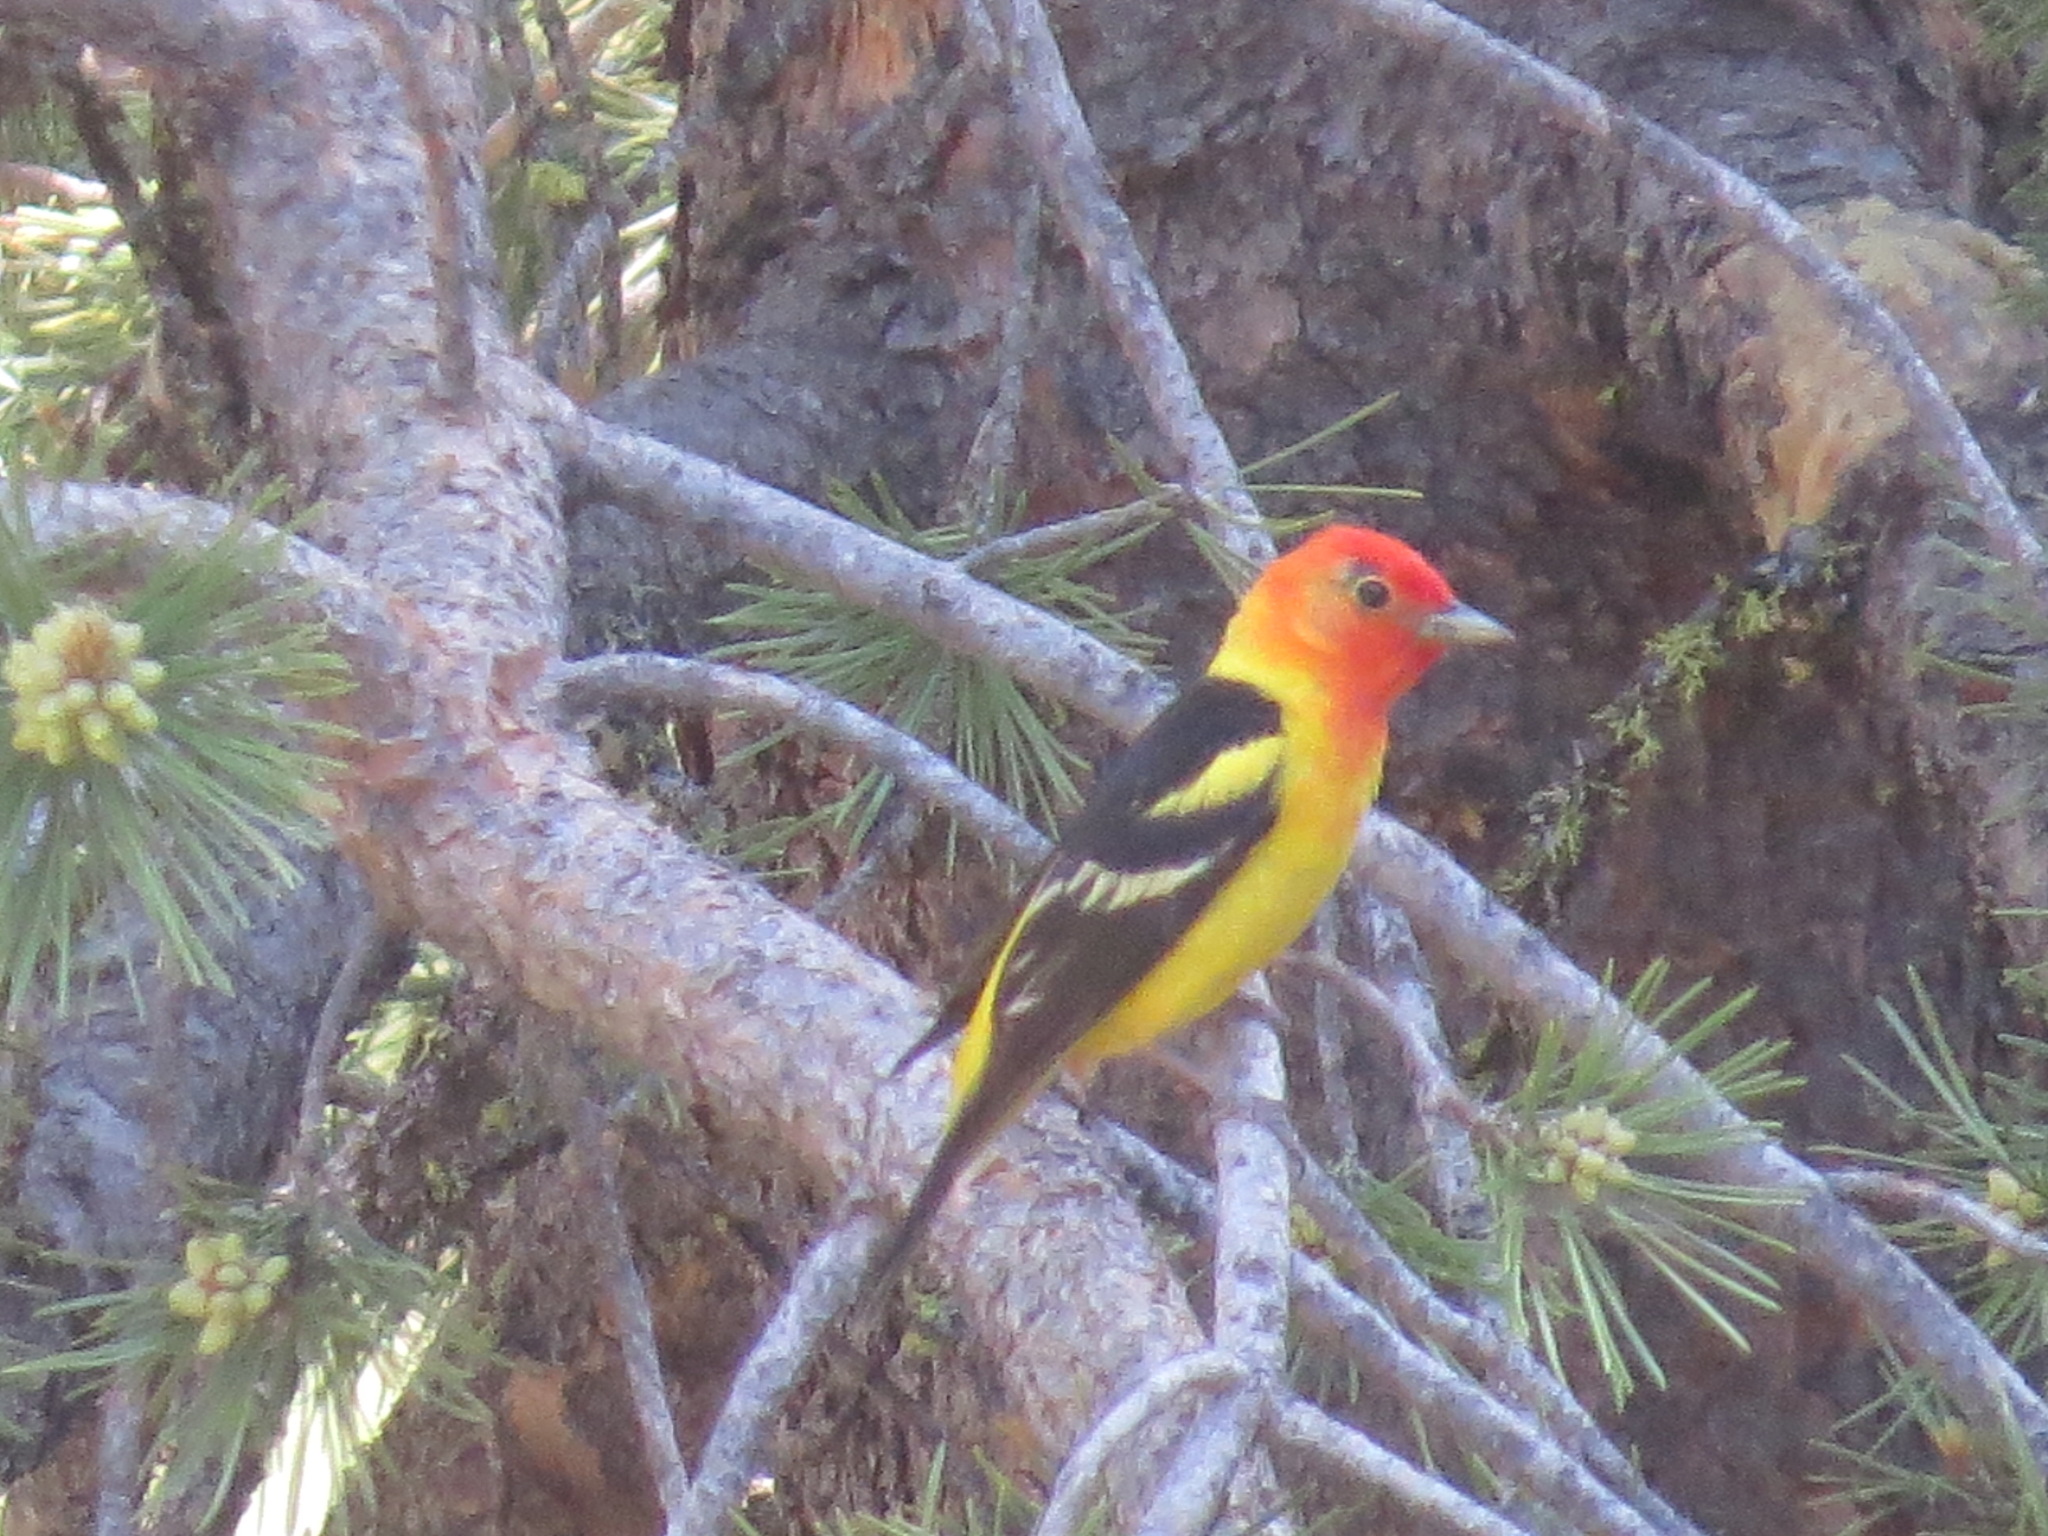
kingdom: Animalia
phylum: Chordata
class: Aves
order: Passeriformes
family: Cardinalidae
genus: Piranga
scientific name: Piranga ludoviciana
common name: Western tanager
